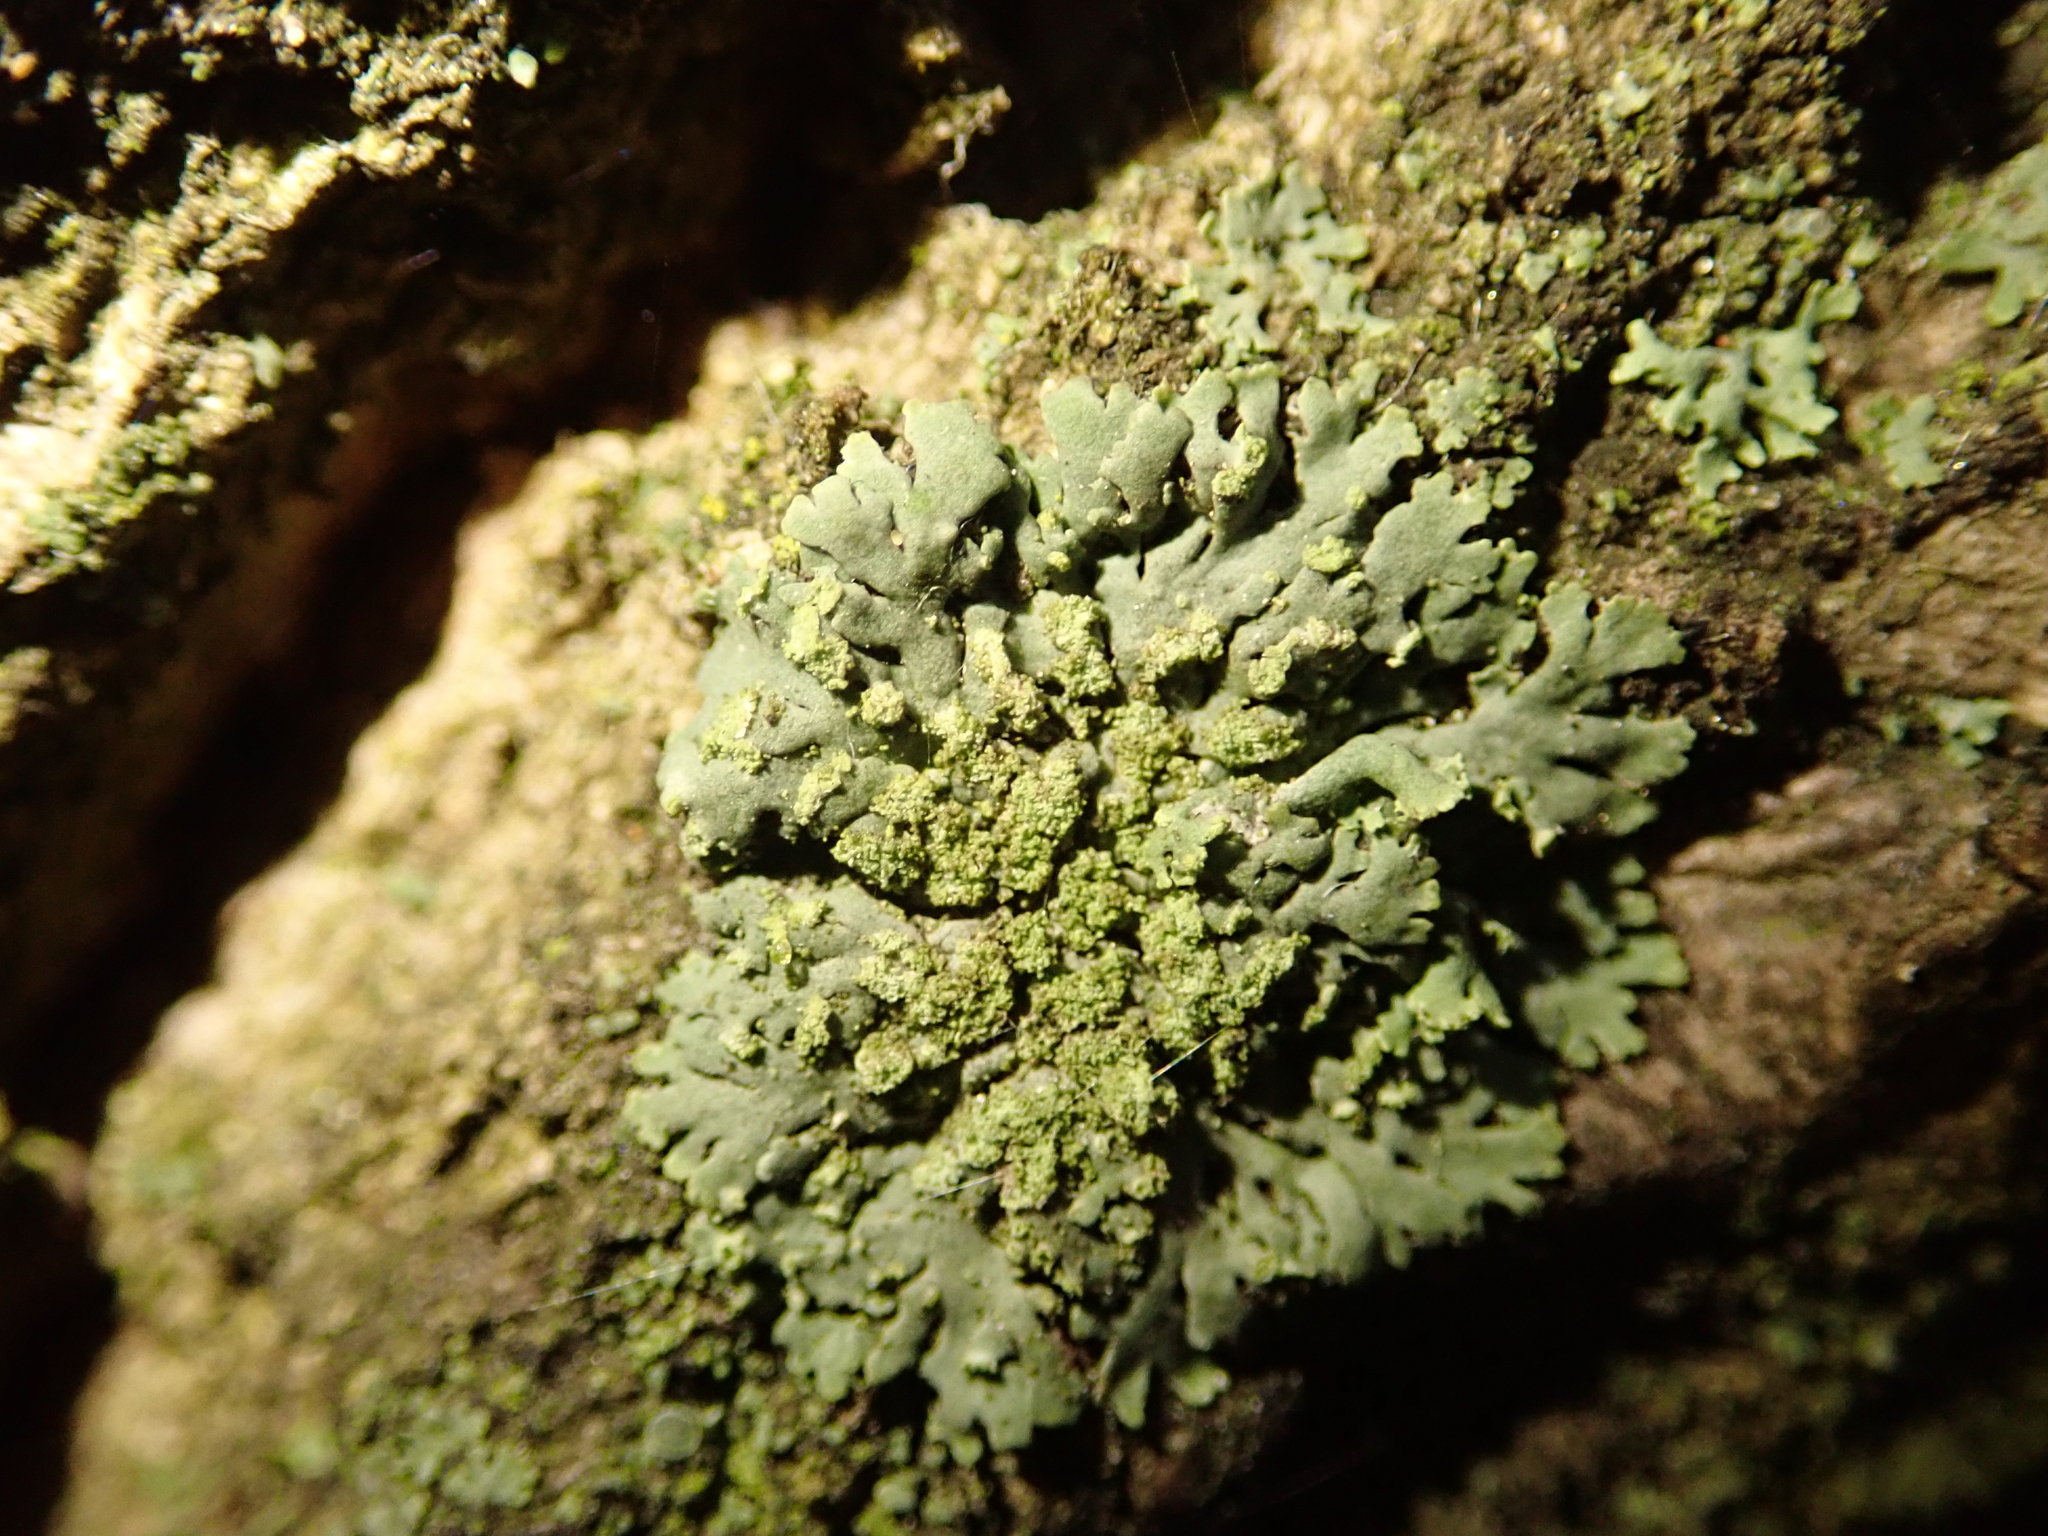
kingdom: Fungi
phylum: Ascomycota
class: Lecanoromycetes
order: Caliciales
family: Physciaceae
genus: Phaeophyscia
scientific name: Phaeophyscia orbicularis
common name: Mealy shadow lichen
